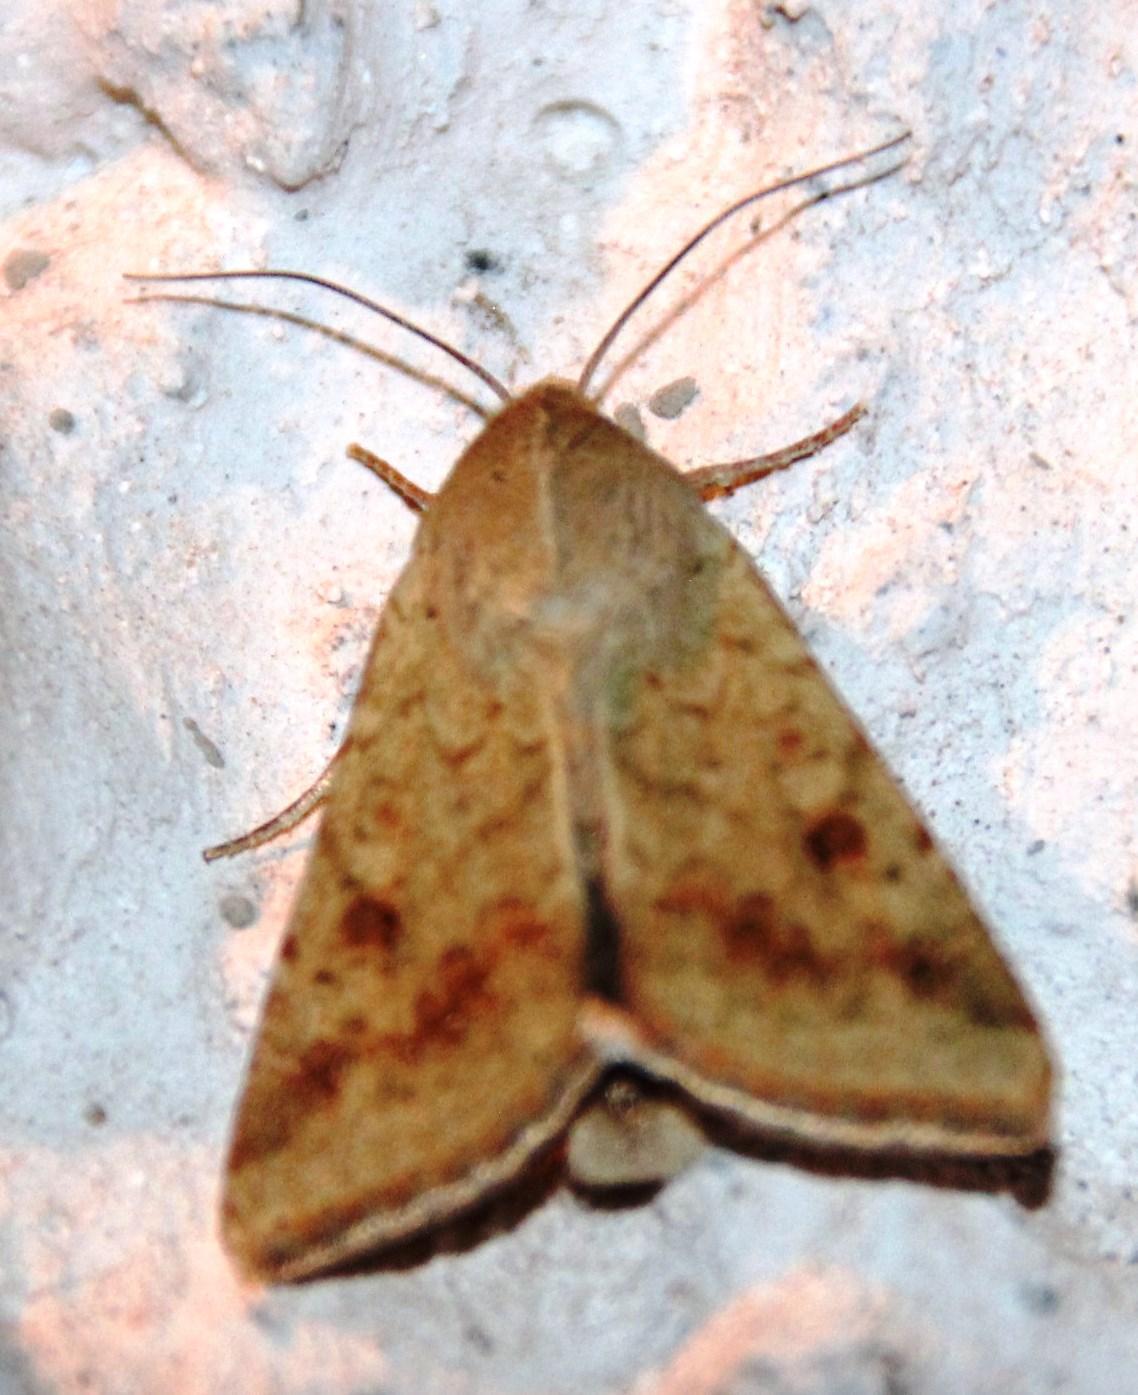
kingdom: Animalia
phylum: Arthropoda
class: Insecta
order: Lepidoptera
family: Noctuidae
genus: Helicoverpa
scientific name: Helicoverpa armigera
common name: Cotton bollworm
